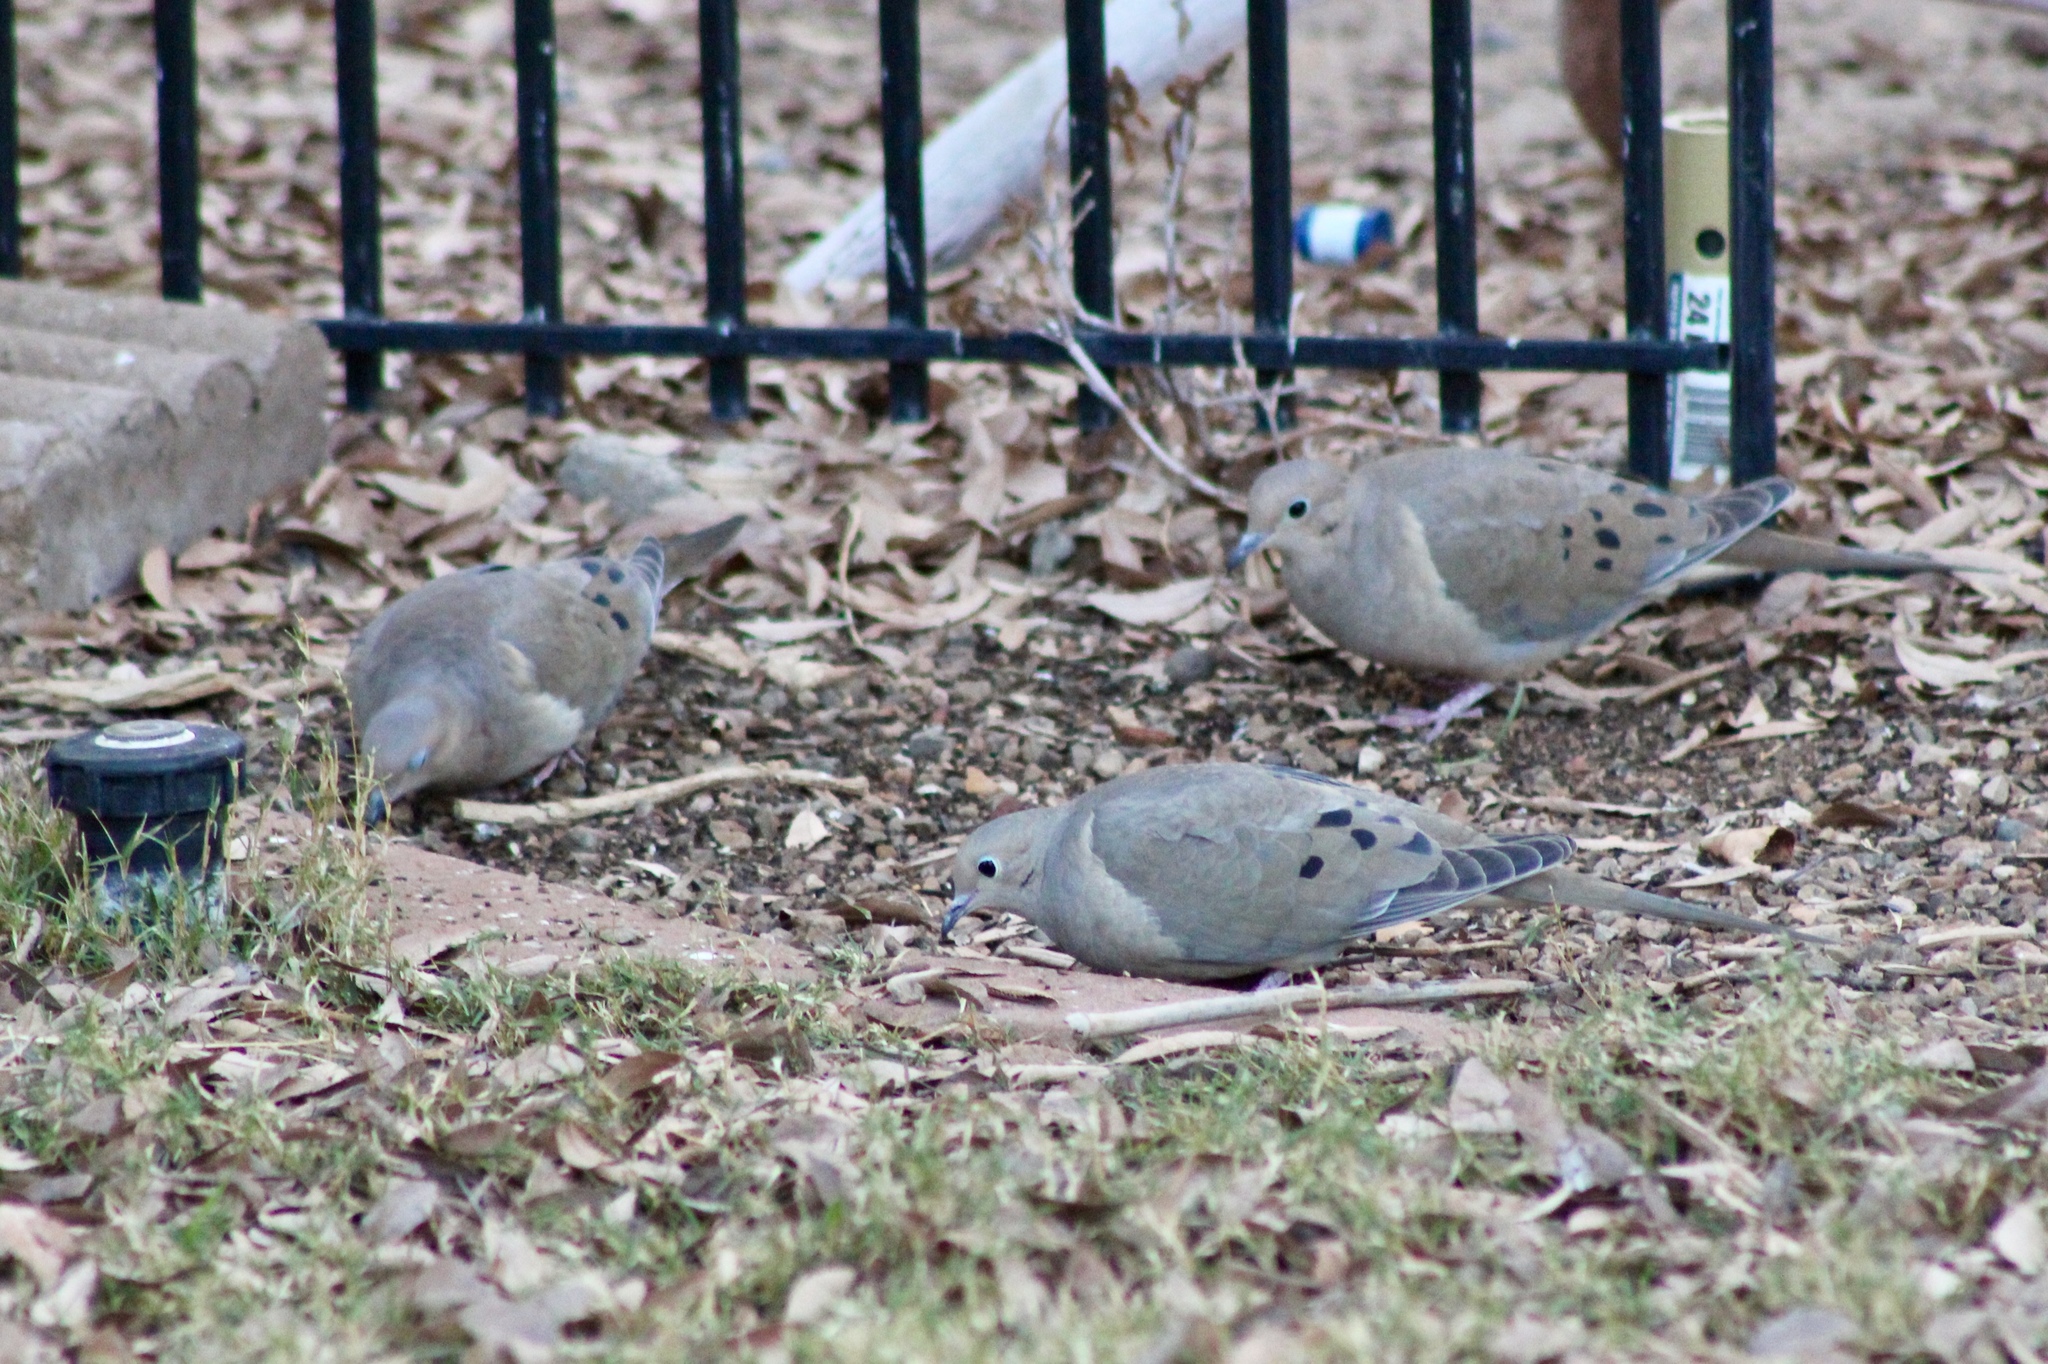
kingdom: Animalia
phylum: Chordata
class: Aves
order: Columbiformes
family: Columbidae
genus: Zenaida
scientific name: Zenaida macroura
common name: Mourning dove
